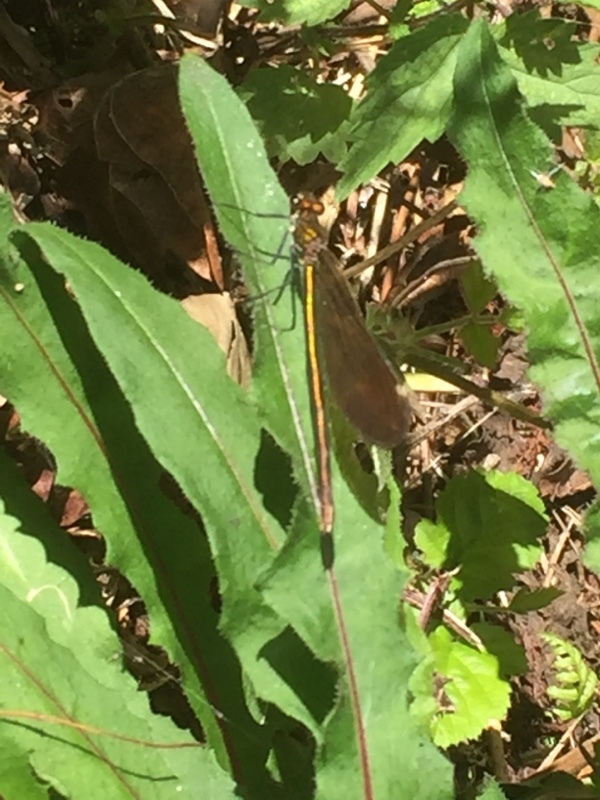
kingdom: Animalia
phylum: Arthropoda
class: Insecta
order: Odonata
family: Calopterygidae
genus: Calopteryx
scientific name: Calopteryx virgo
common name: Beautiful demoiselle
